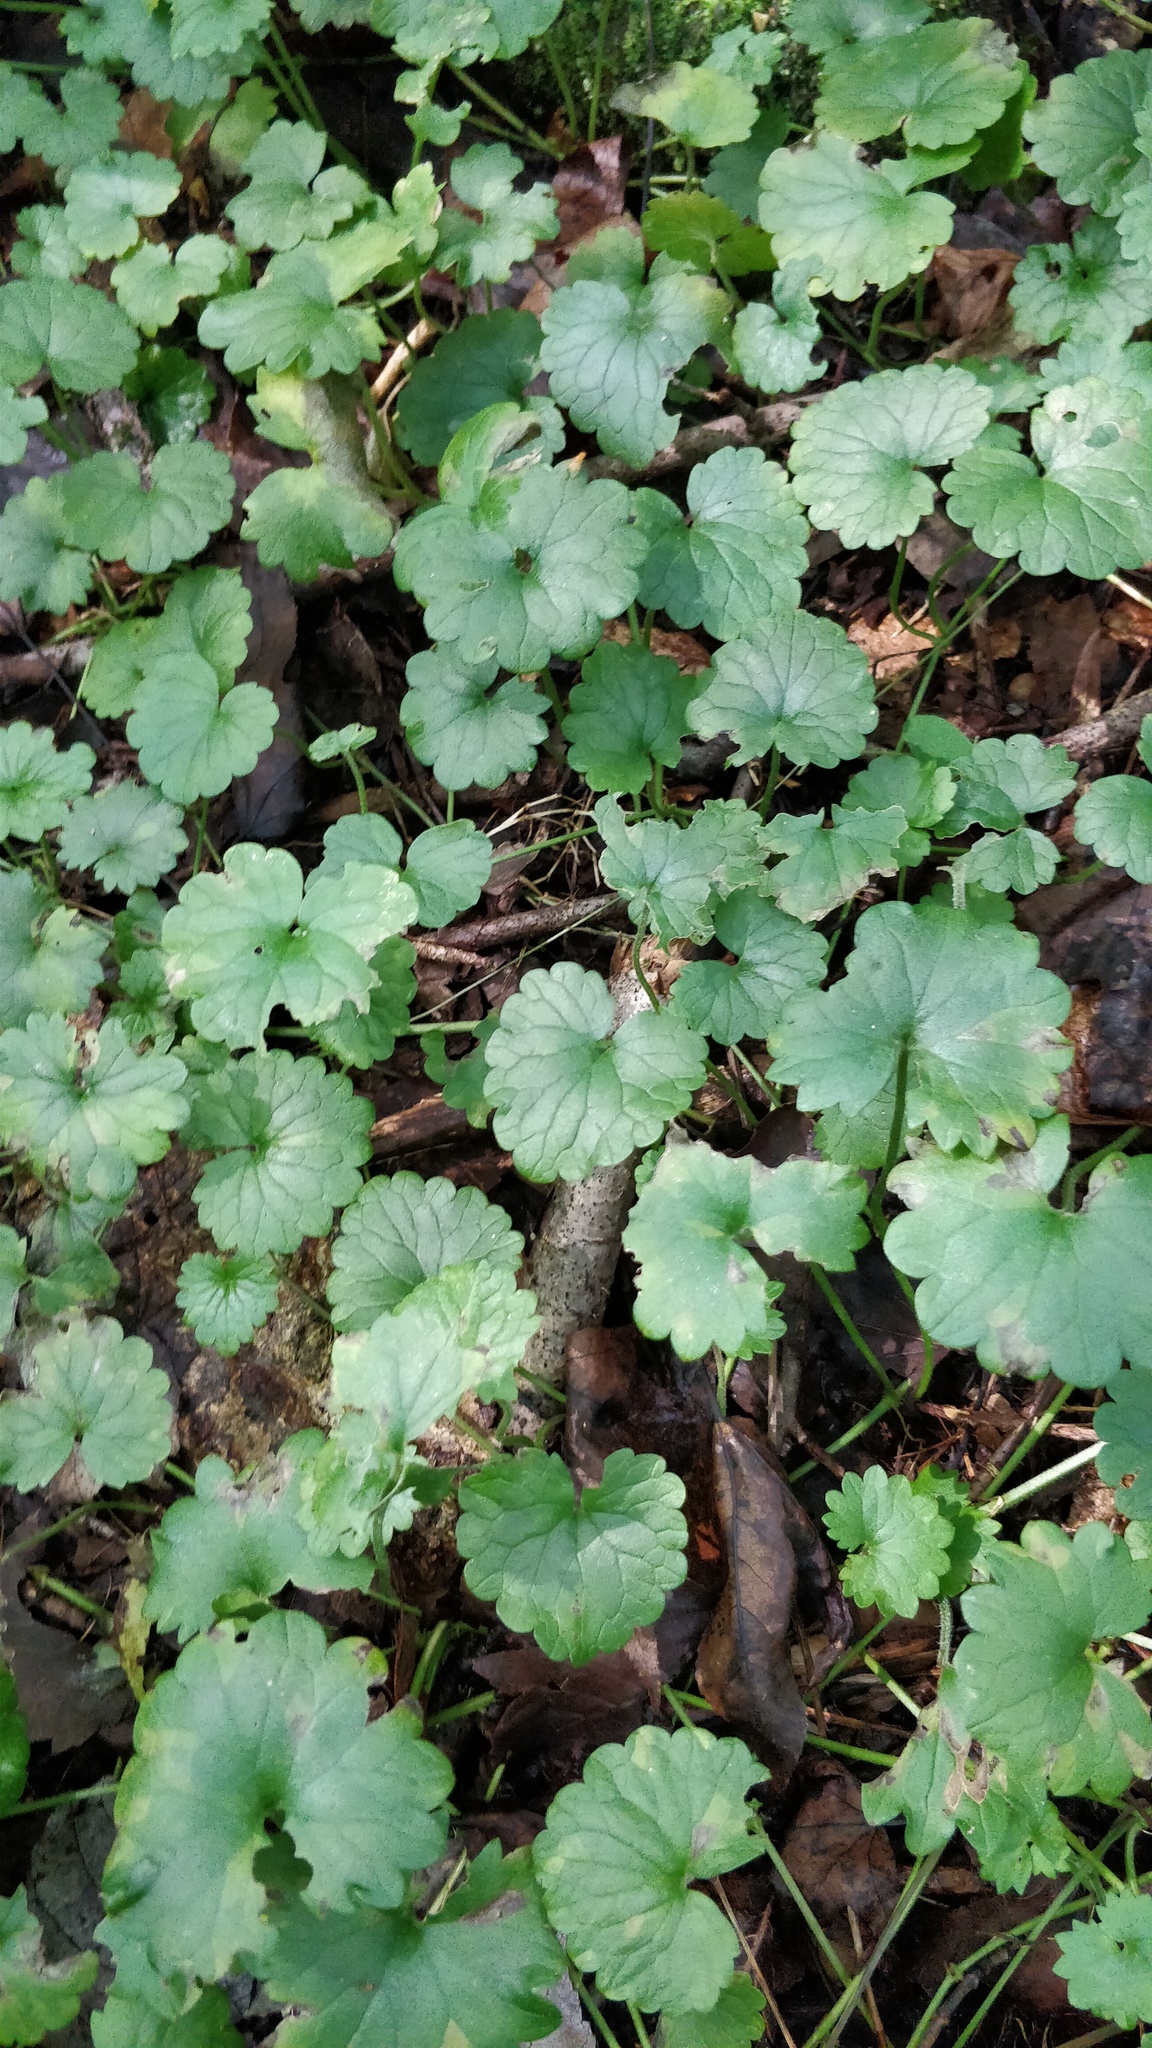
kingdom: Plantae
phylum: Tracheophyta
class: Magnoliopsida
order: Lamiales
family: Lamiaceae
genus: Glechoma
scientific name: Glechoma hederacea
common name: Ground ivy
